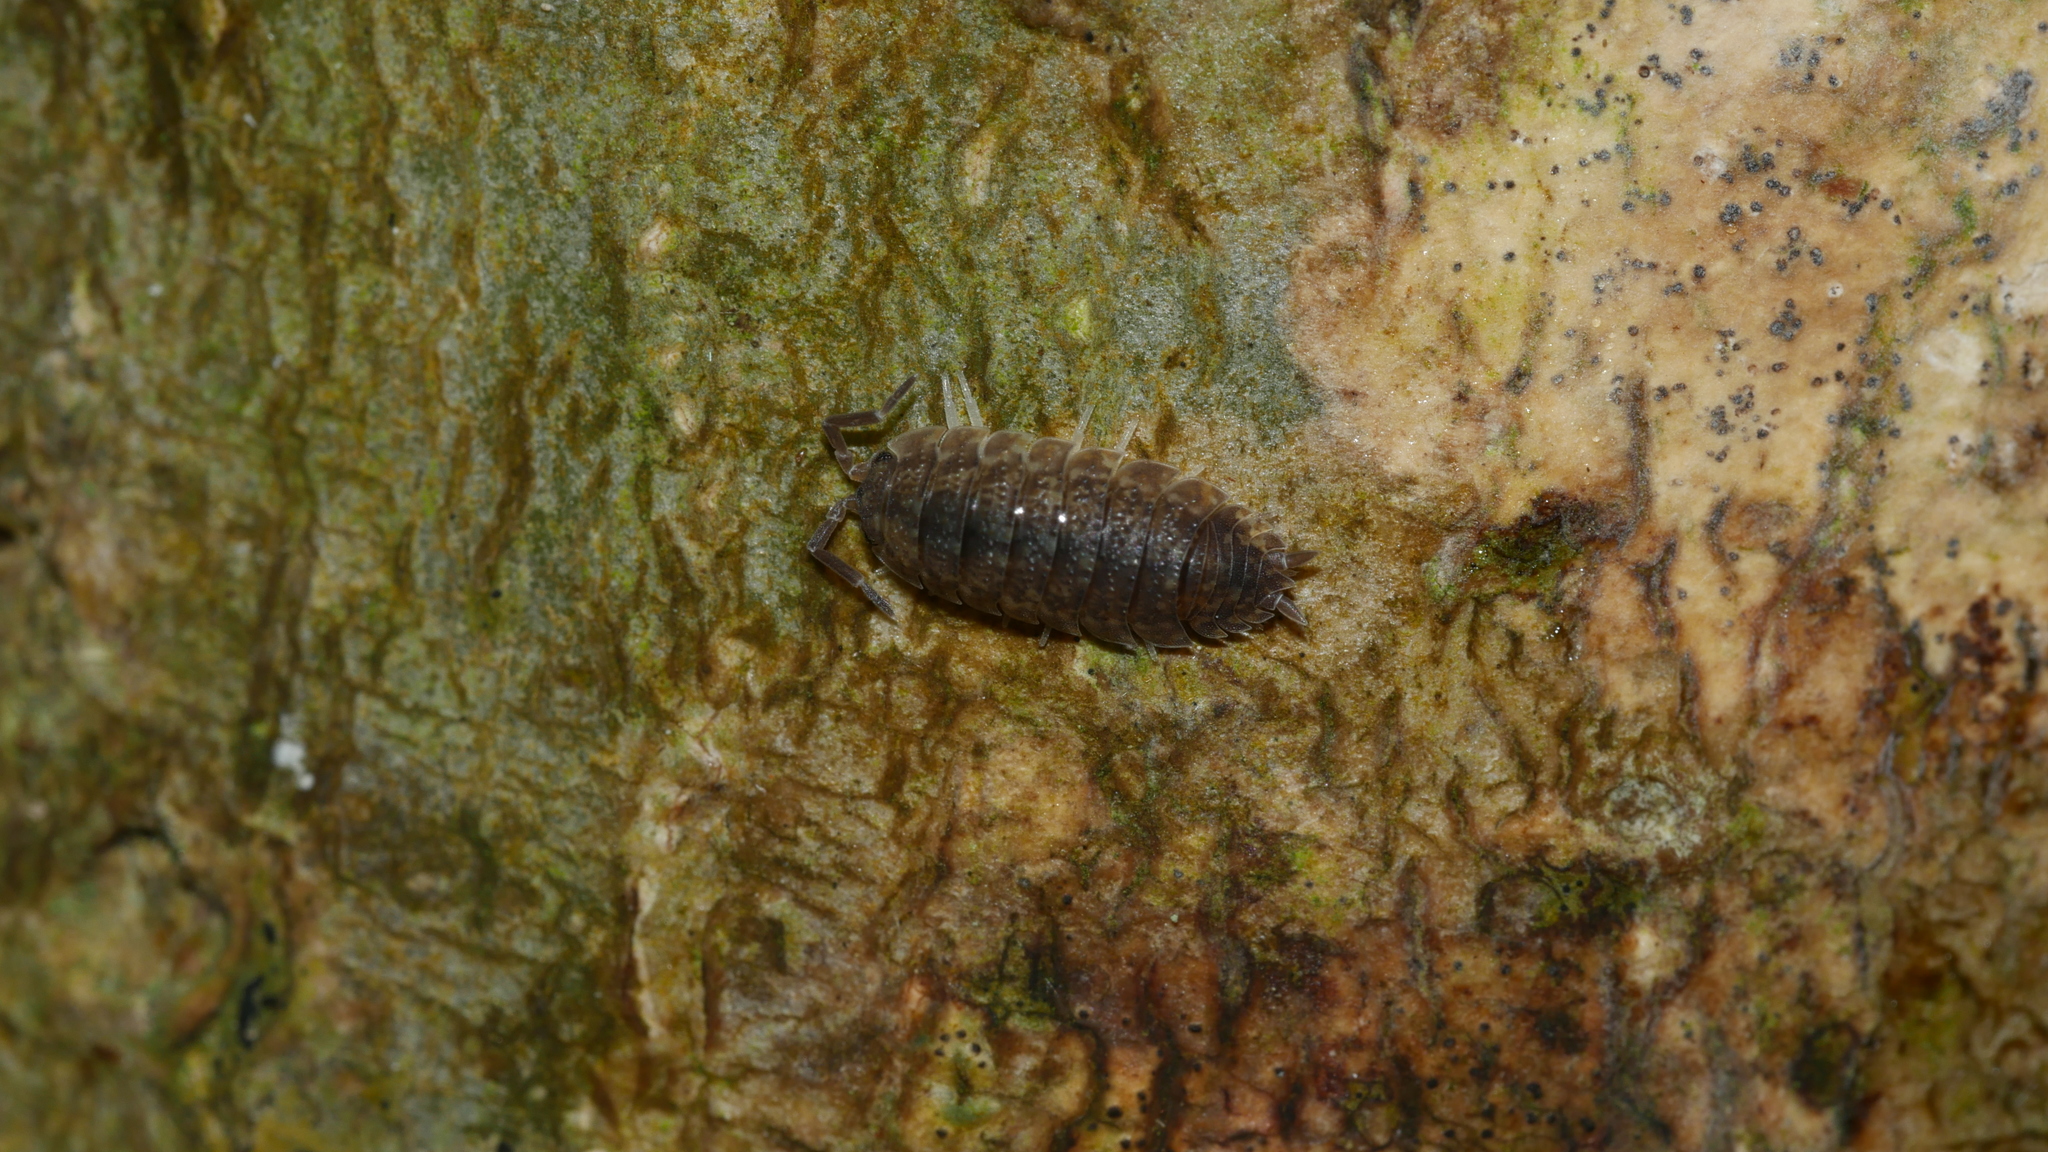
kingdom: Animalia
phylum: Arthropoda
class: Malacostraca
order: Isopoda
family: Porcellionidae
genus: Porcellio
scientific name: Porcellio scaber
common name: Common rough woodlouse
